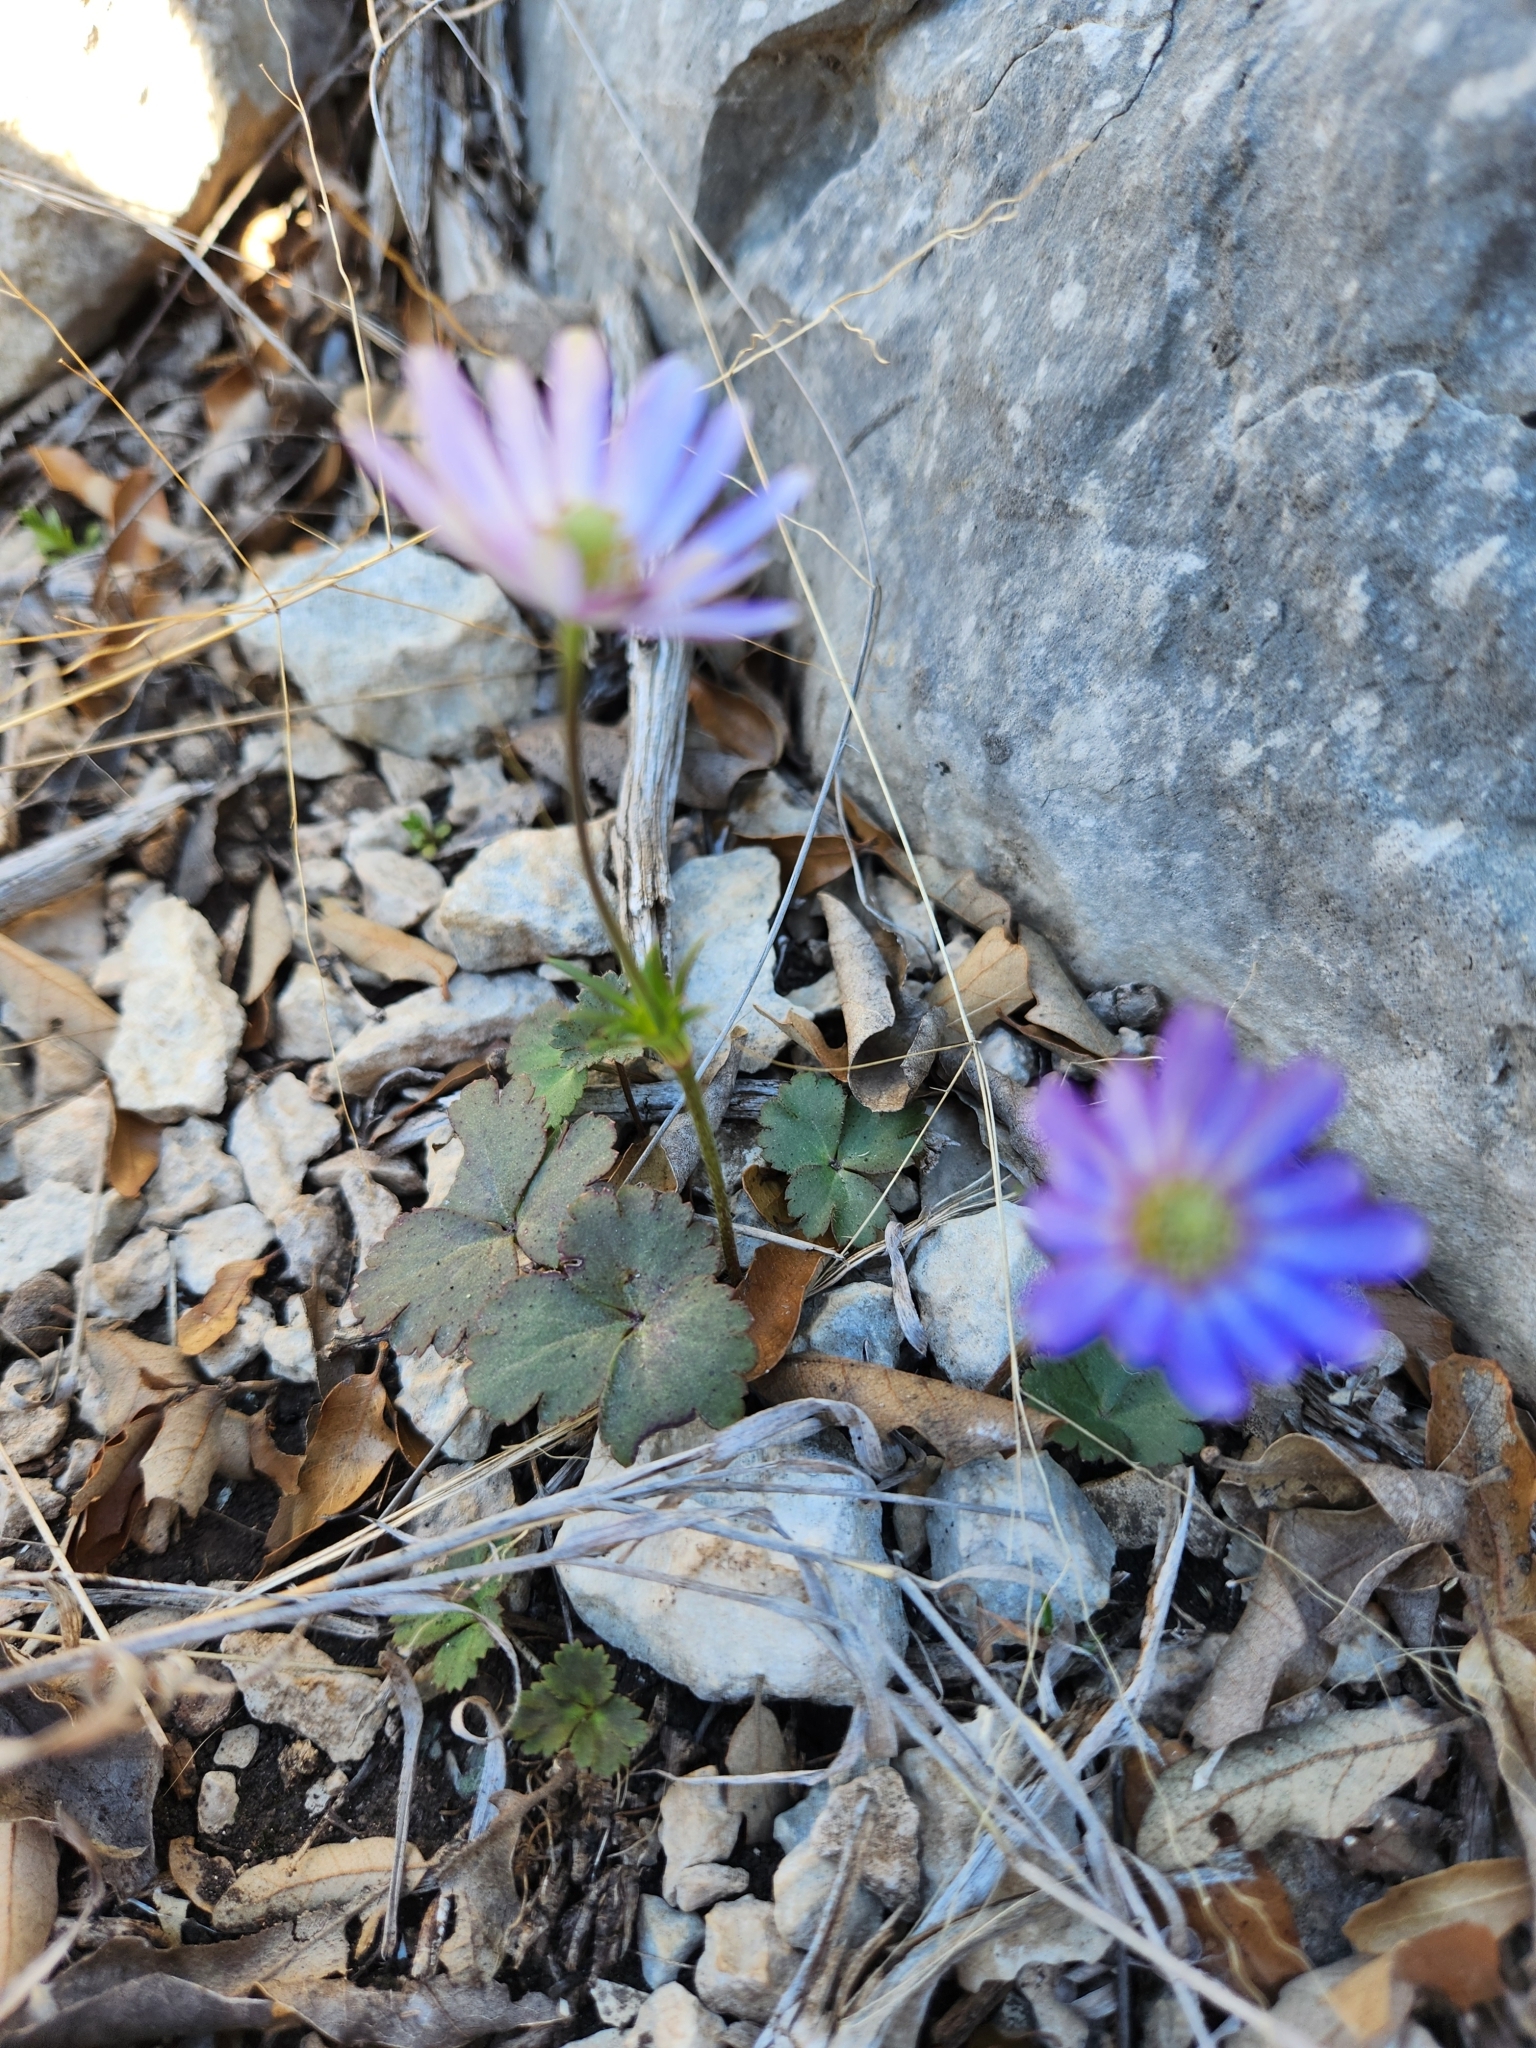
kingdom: Plantae
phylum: Tracheophyta
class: Magnoliopsida
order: Ranunculales
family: Ranunculaceae
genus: Anemone
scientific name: Anemone berlandieri
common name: Ten-petal anemone
